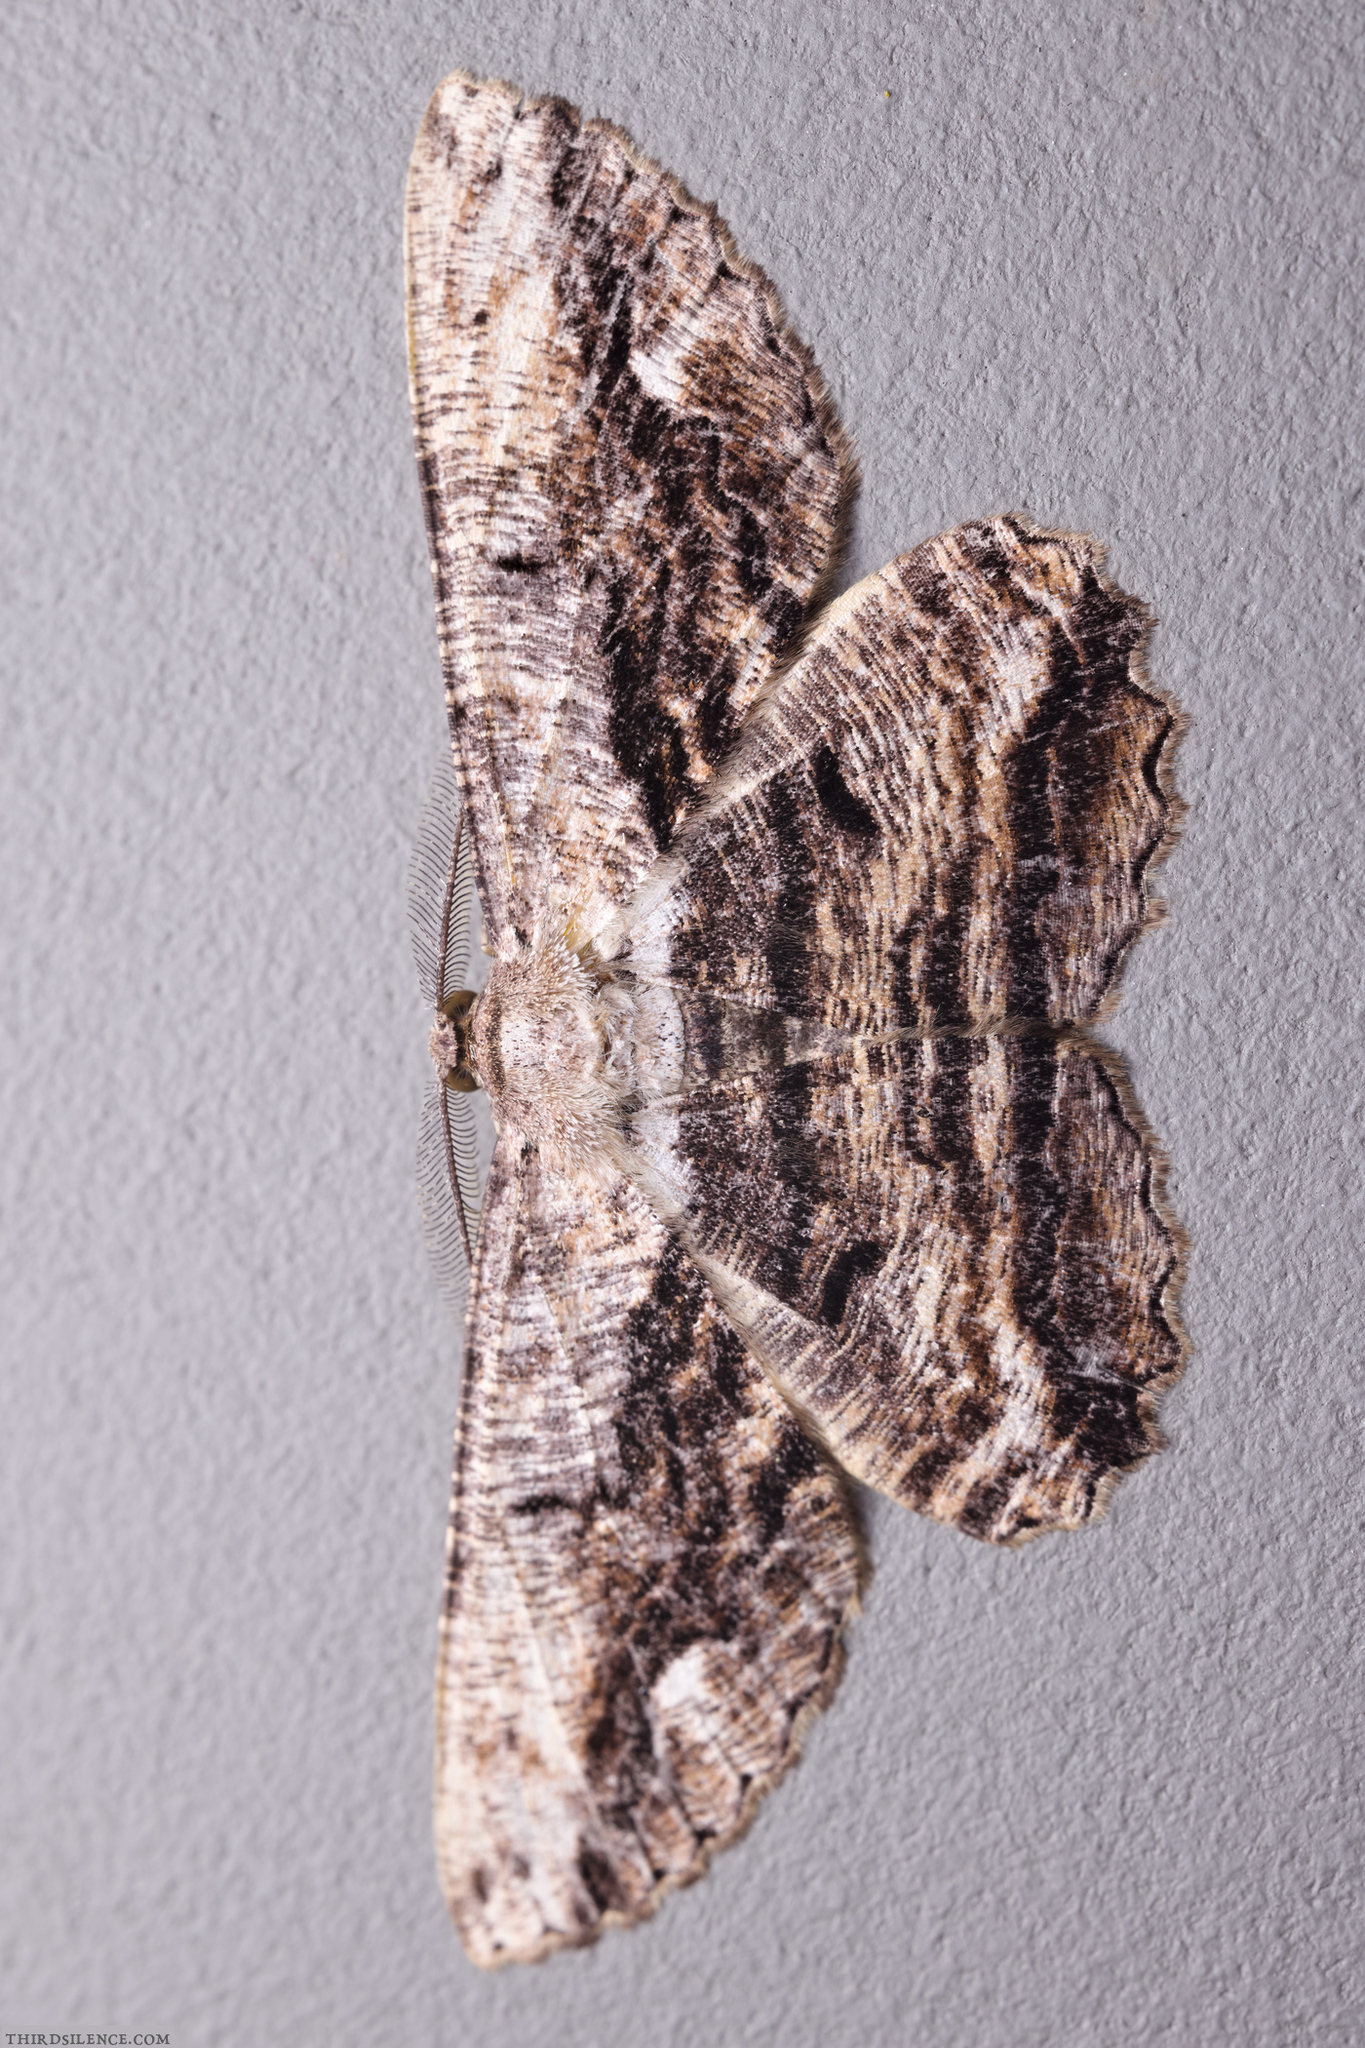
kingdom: Animalia
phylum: Arthropoda
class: Insecta
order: Lepidoptera
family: Geometridae
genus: Scioglyptis
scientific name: Scioglyptis lyciaria
